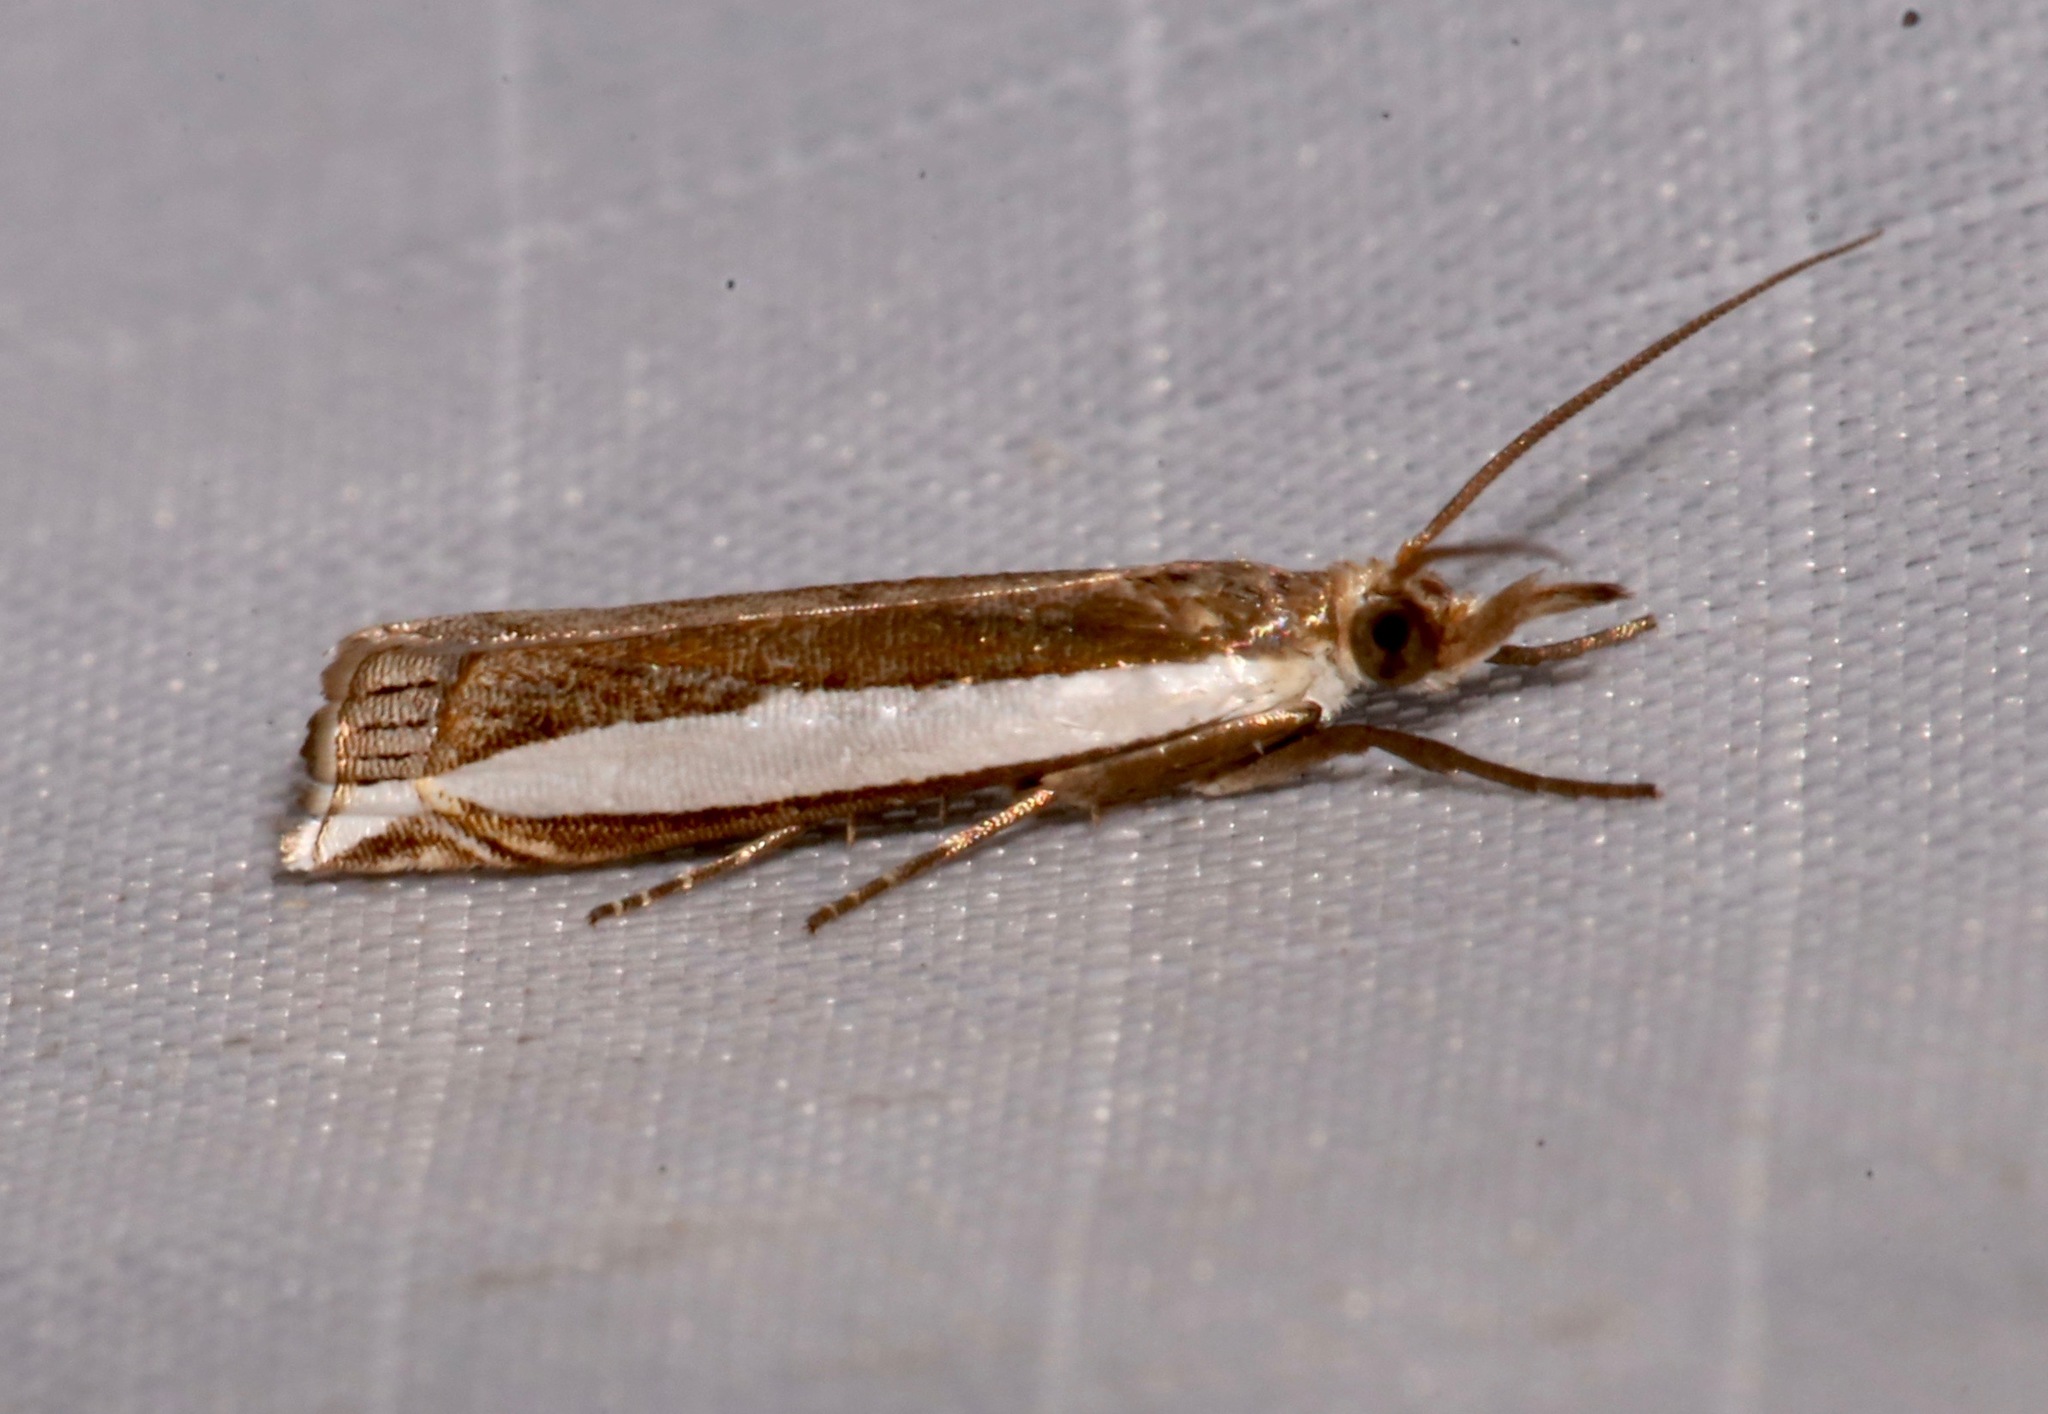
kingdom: Animalia
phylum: Arthropoda
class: Insecta
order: Lepidoptera
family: Crambidae
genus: Crambus
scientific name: Crambus quinquareatus
